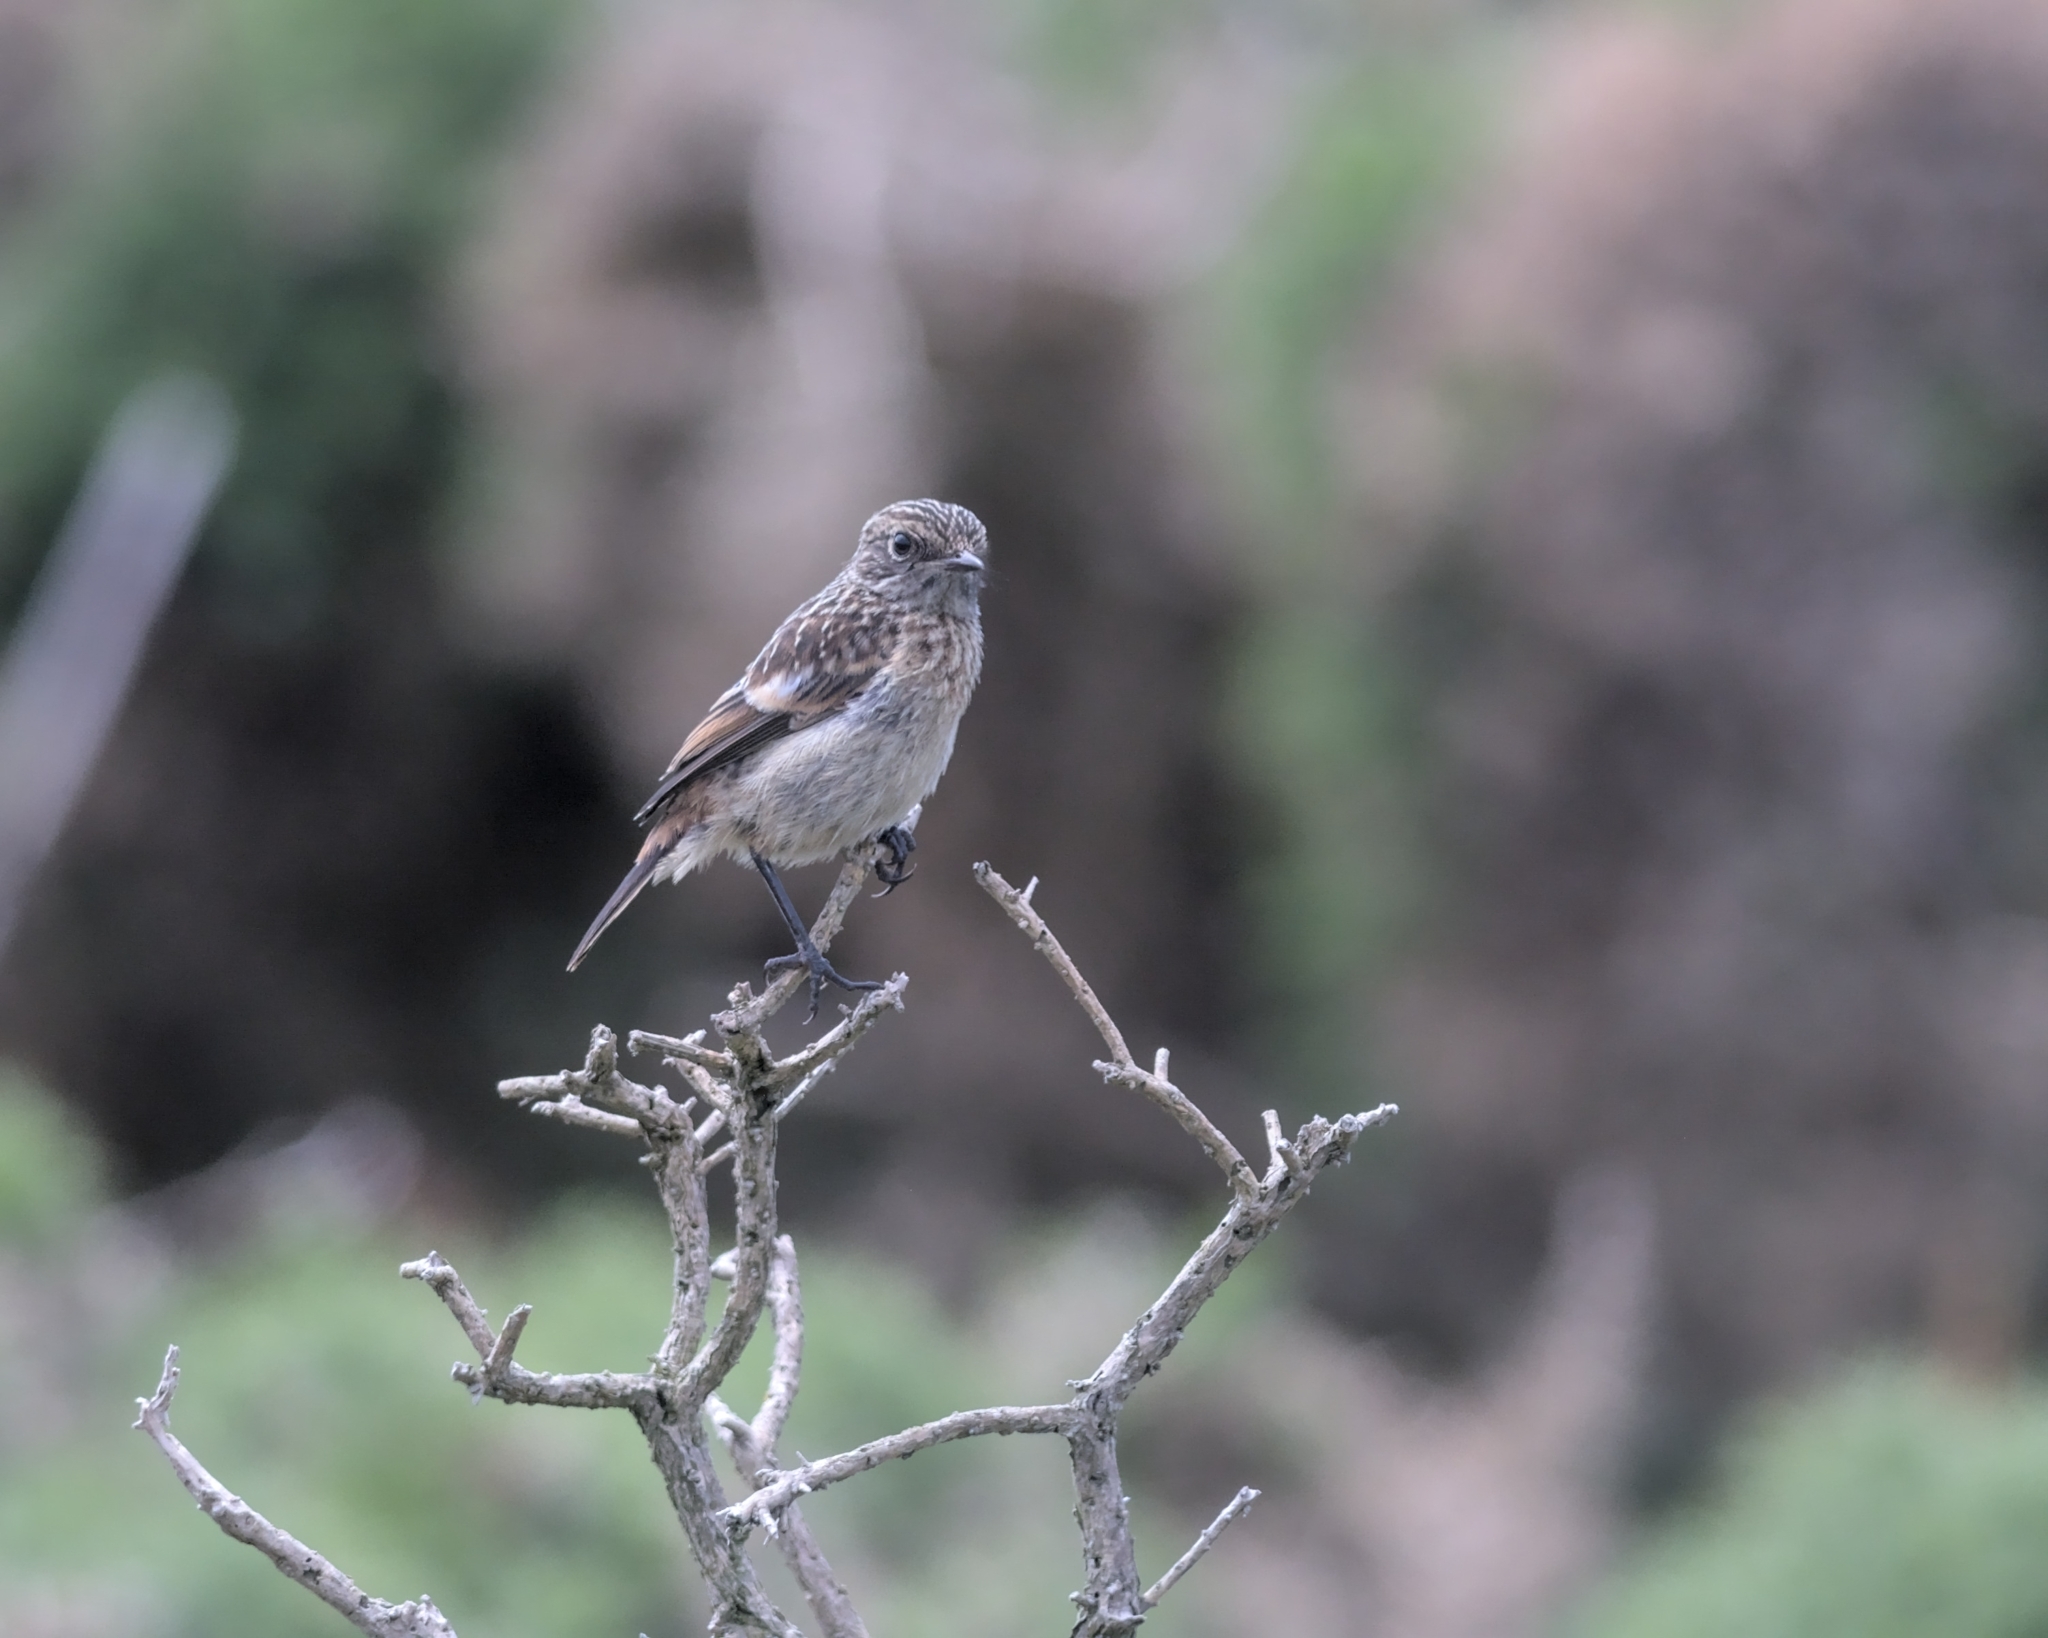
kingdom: Animalia
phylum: Chordata
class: Aves
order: Passeriformes
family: Muscicapidae
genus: Saxicola
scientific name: Saxicola rubicola
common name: European stonechat
